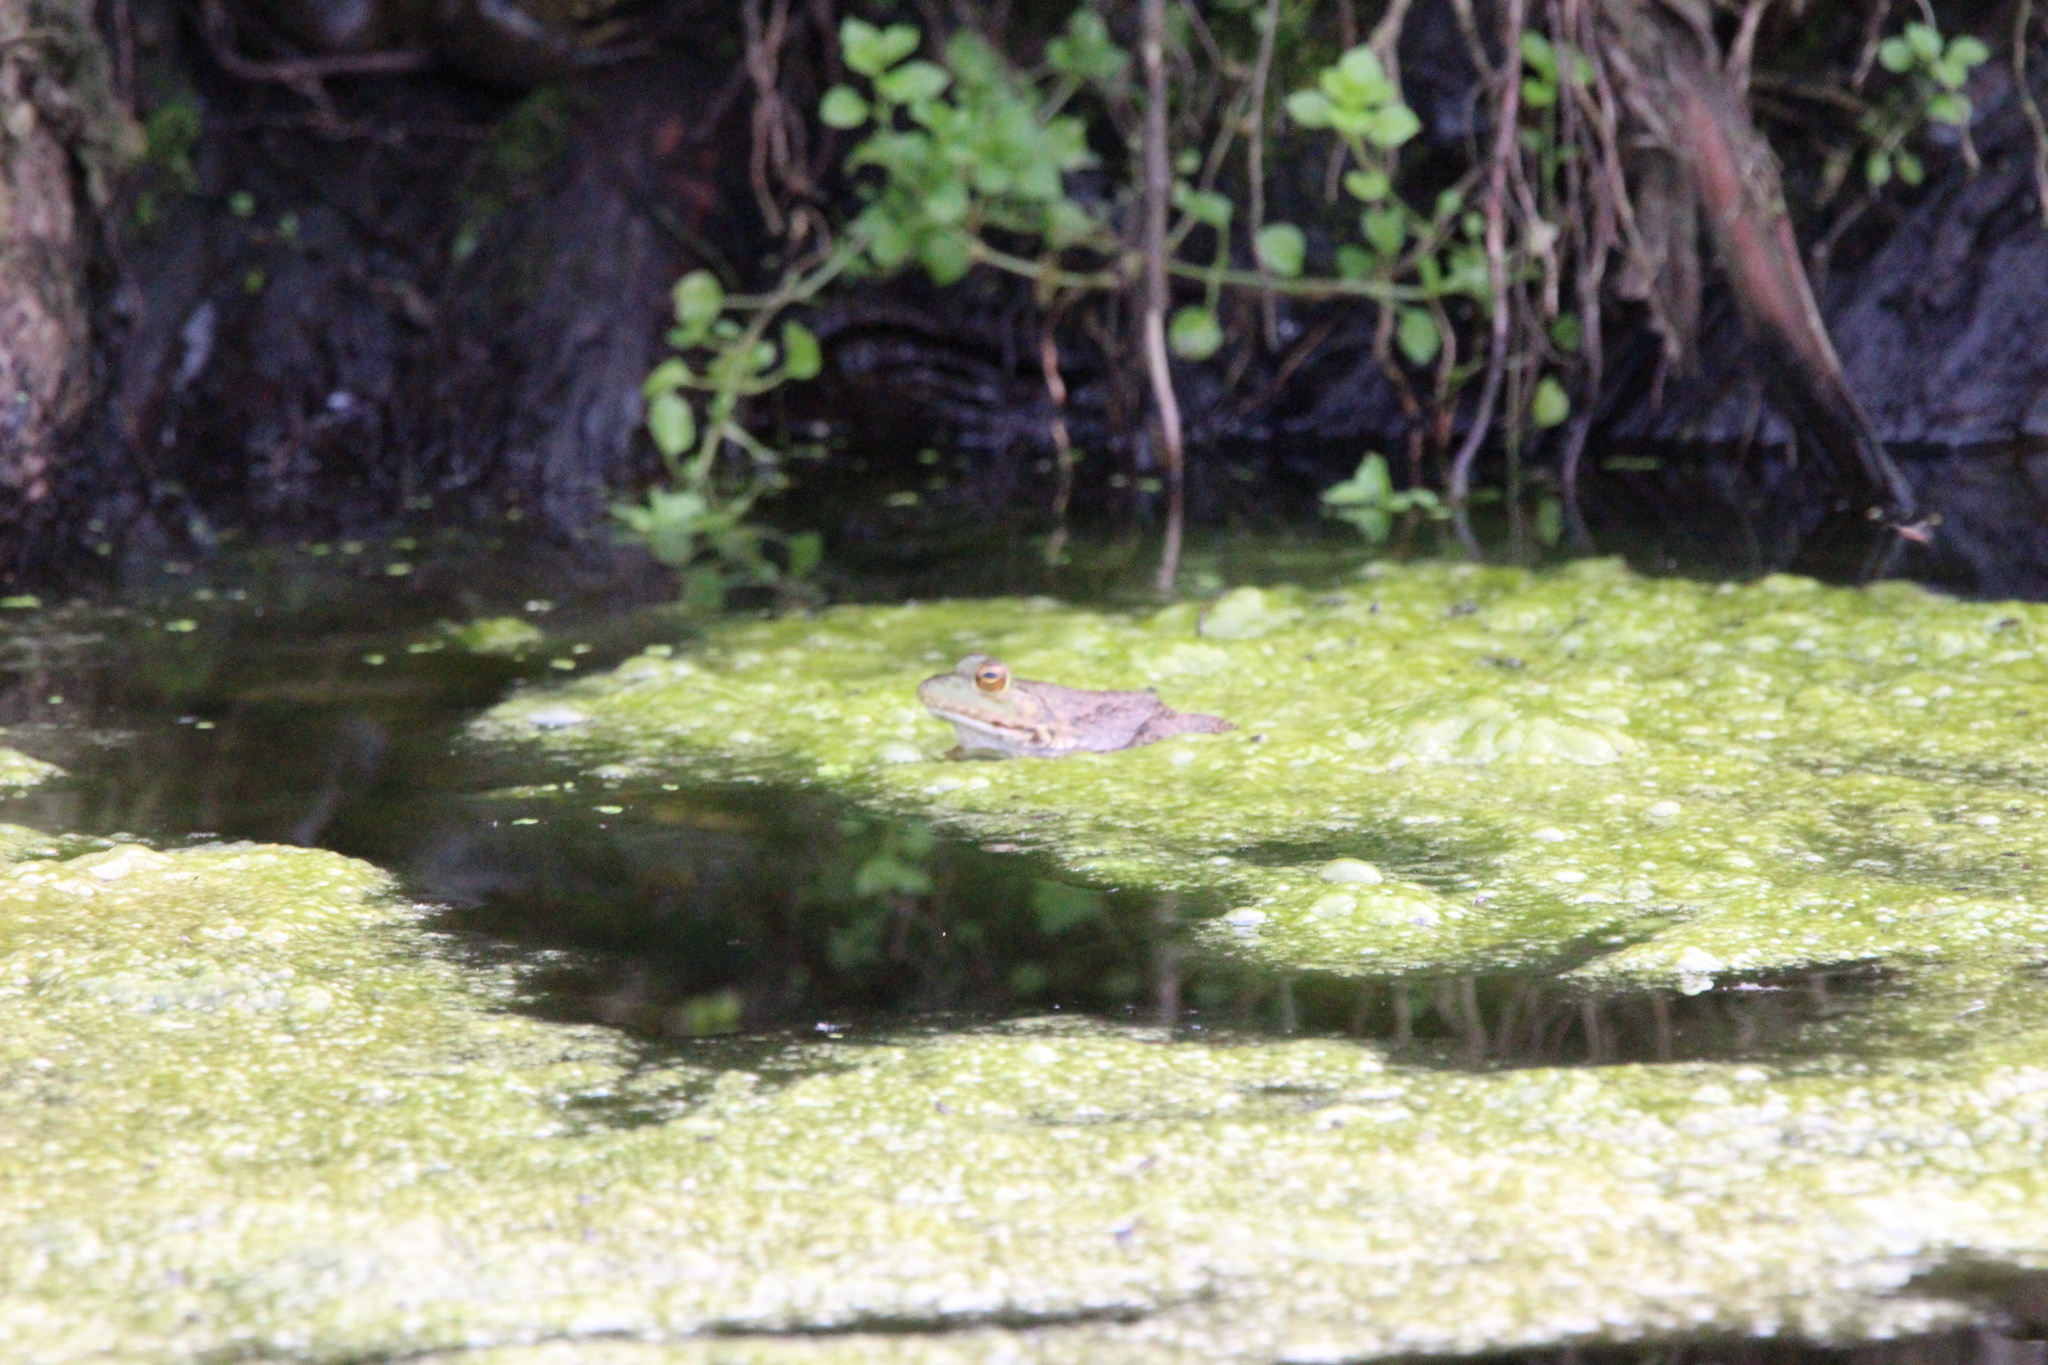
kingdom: Animalia
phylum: Chordata
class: Amphibia
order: Anura
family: Ranidae
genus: Lithobates
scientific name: Lithobates catesbeianus
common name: American bullfrog
